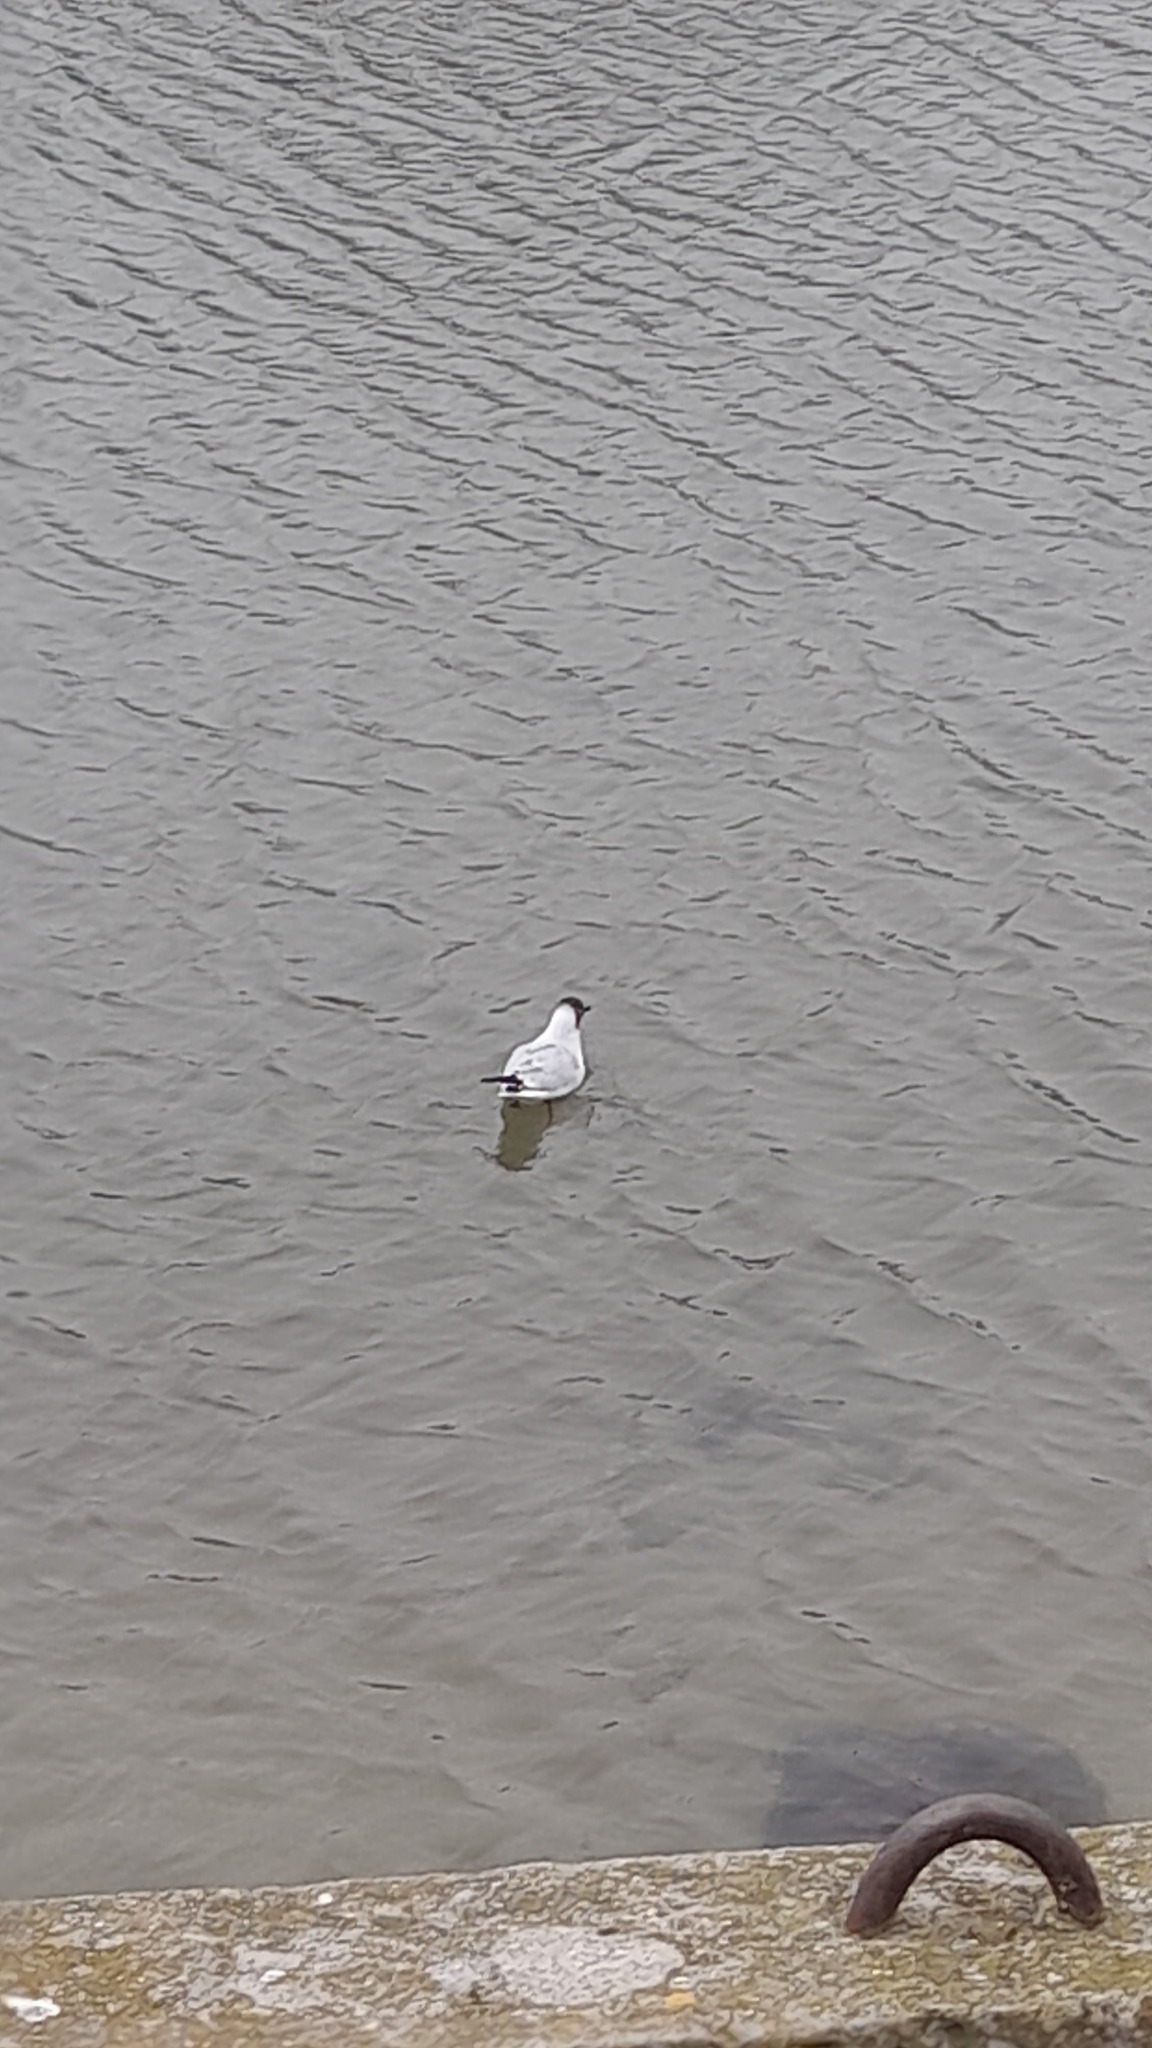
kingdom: Animalia
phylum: Chordata
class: Aves
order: Charadriiformes
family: Laridae
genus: Chroicocephalus
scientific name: Chroicocephalus ridibundus
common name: Black-headed gull
